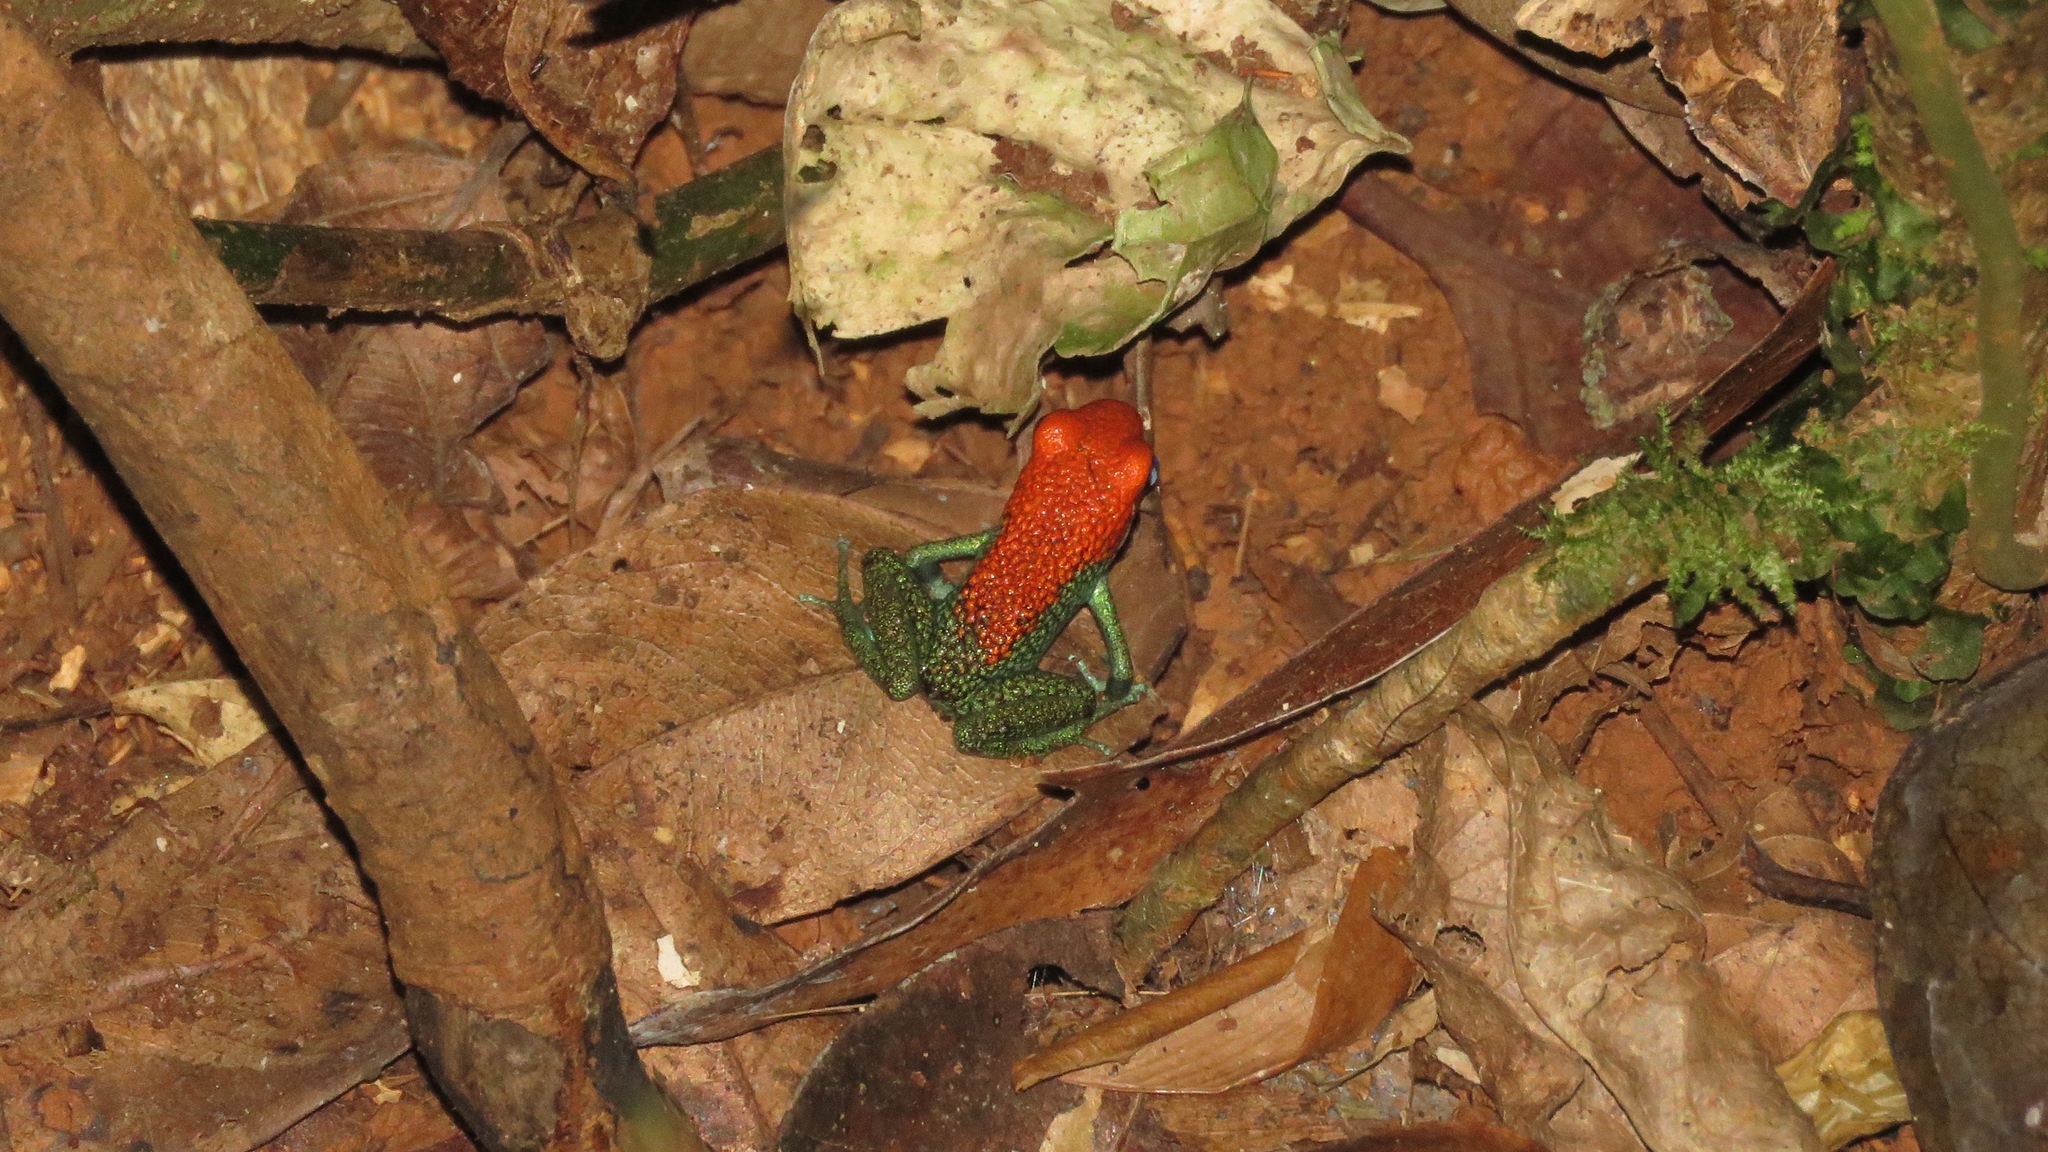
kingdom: Animalia
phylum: Chordata
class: Amphibia
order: Anura
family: Dendrobatidae
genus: Oophaga
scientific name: Oophaga granulifera
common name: Granular poison frog
